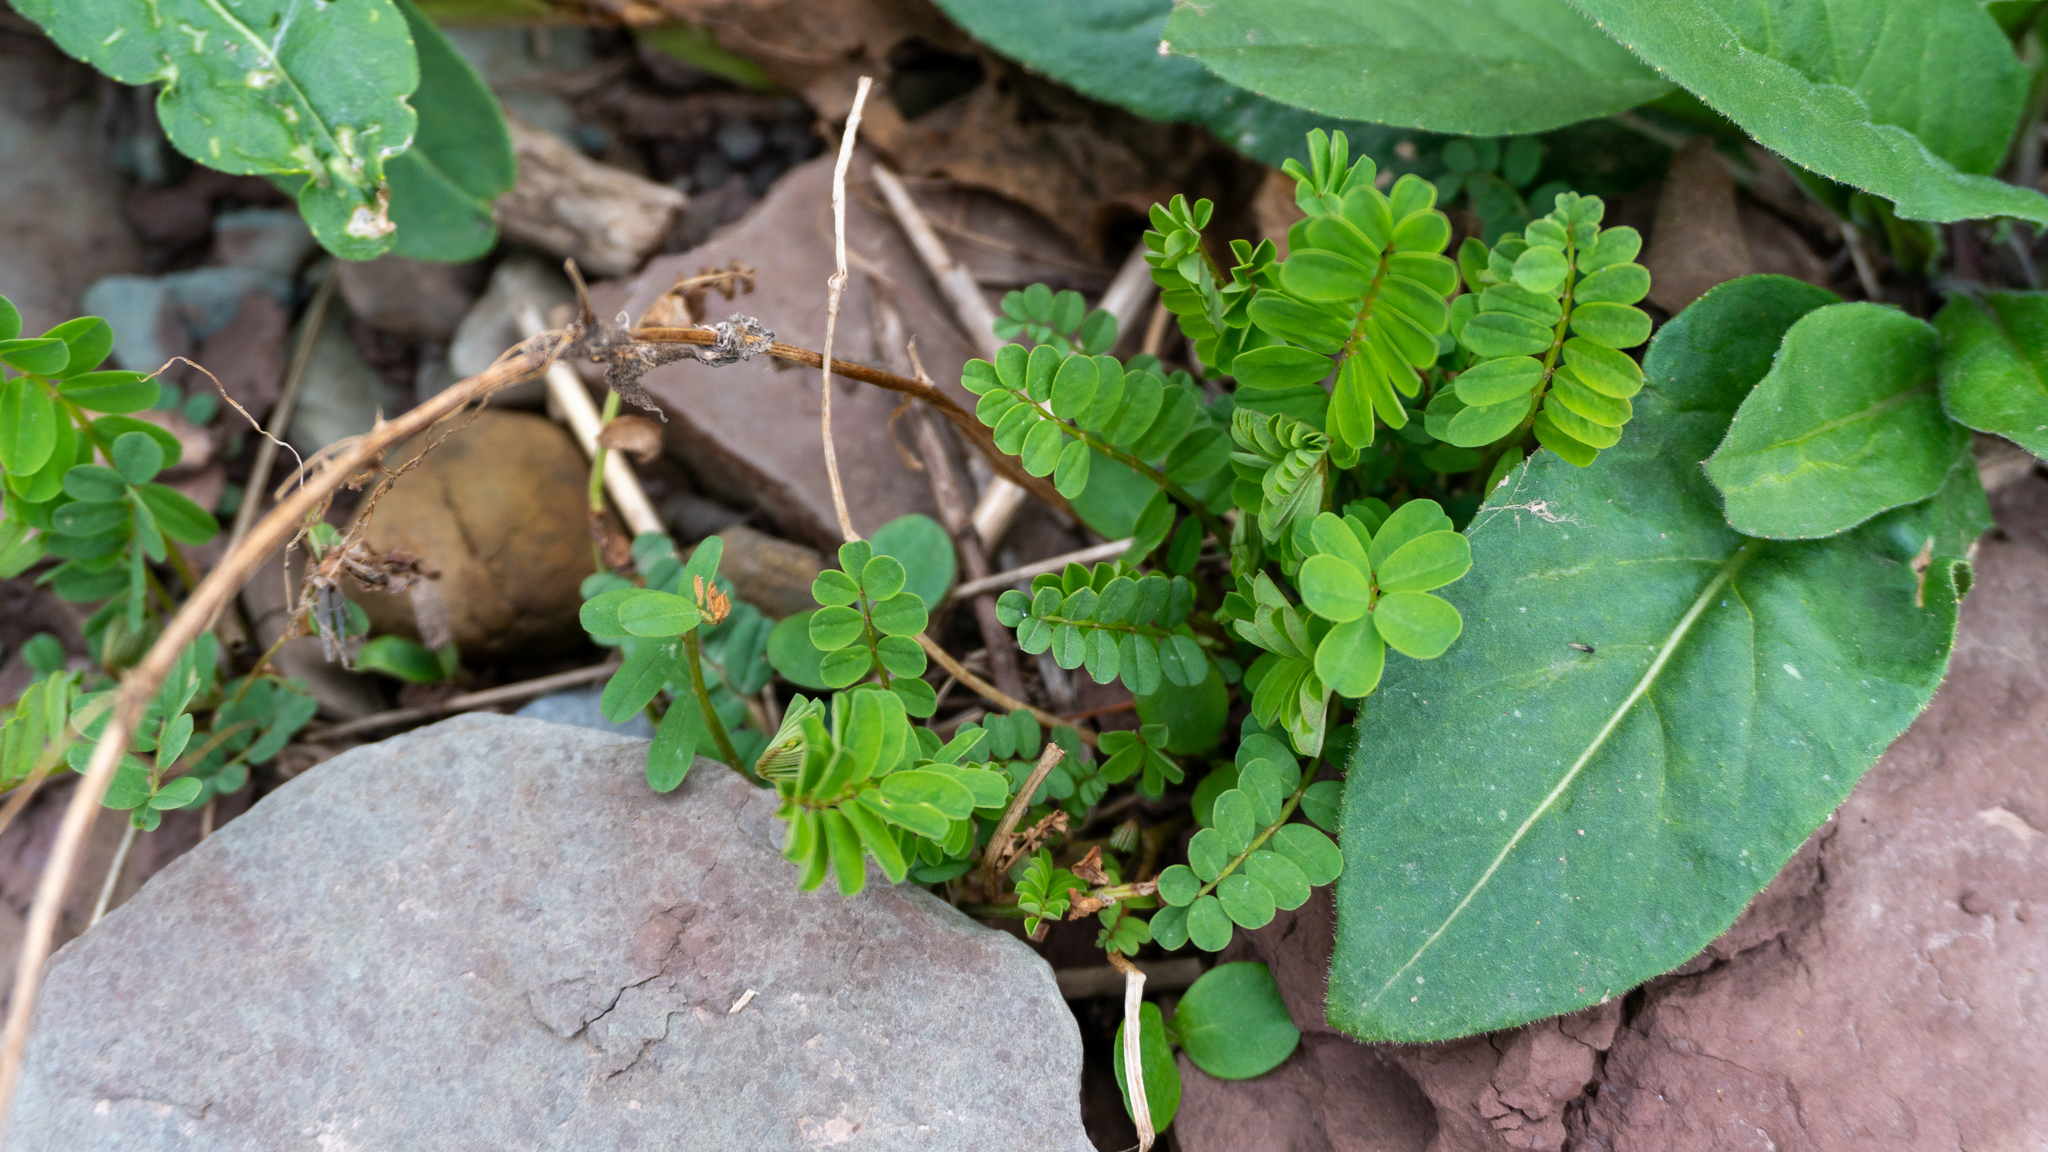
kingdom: Plantae
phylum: Tracheophyta
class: Magnoliopsida
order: Fabales
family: Fabaceae
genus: Coronilla
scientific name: Coronilla varia
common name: Crownvetch
